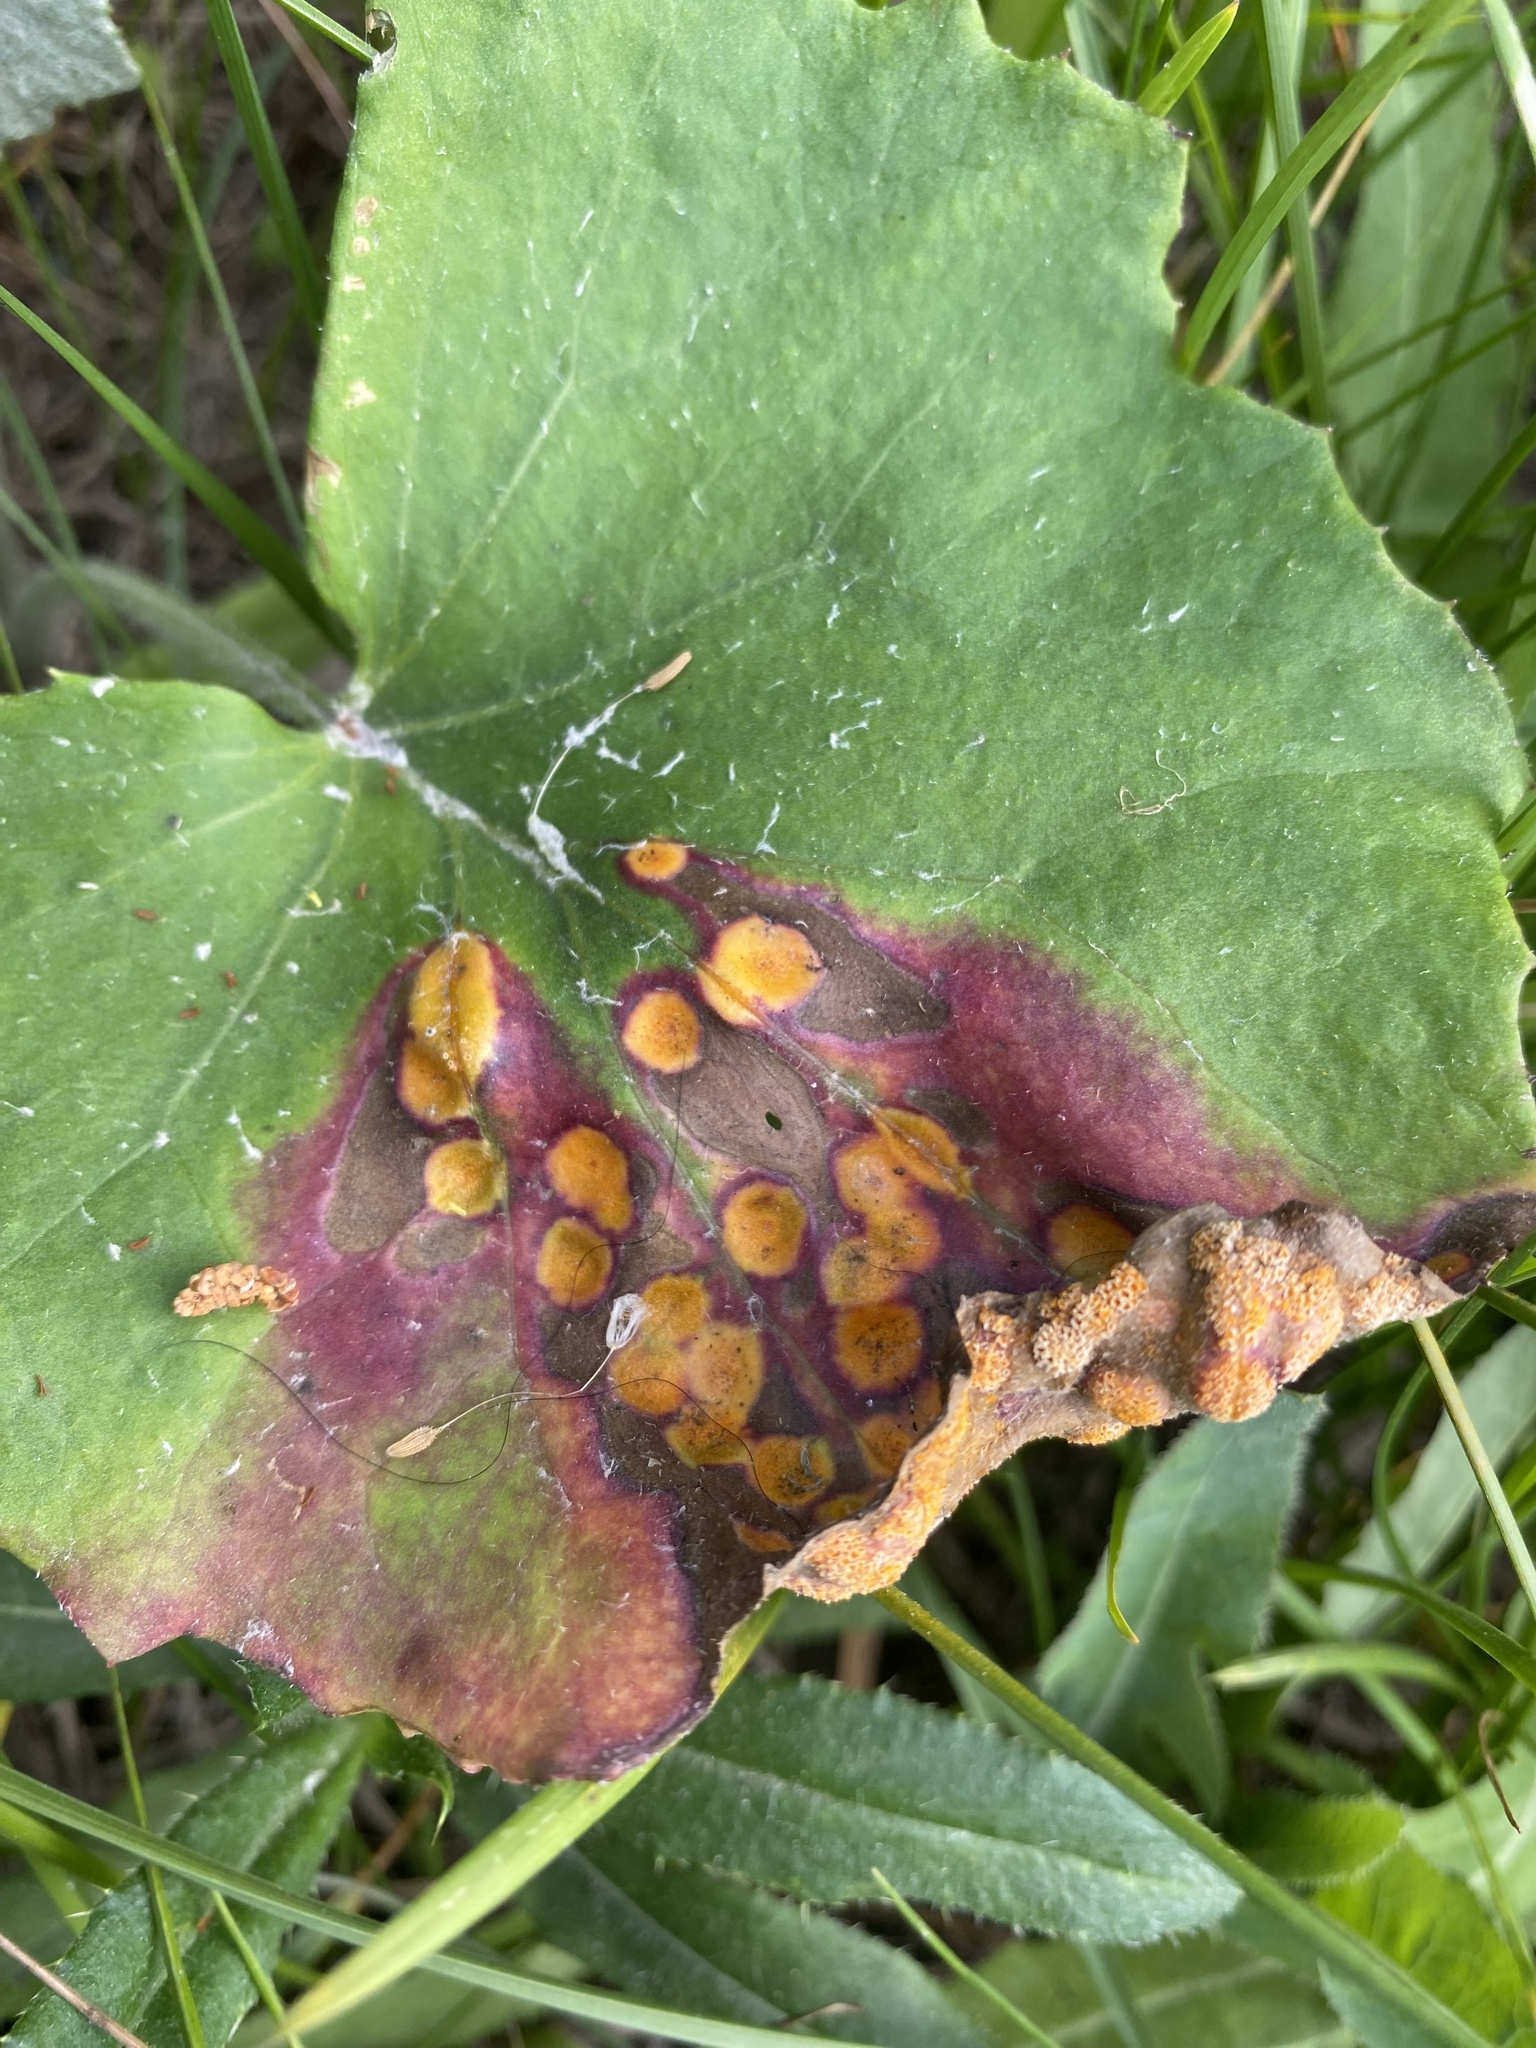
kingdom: Fungi
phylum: Basidiomycota
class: Pucciniomycetes
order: Pucciniales
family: Pucciniaceae
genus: Puccinia
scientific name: Puccinia poarum
